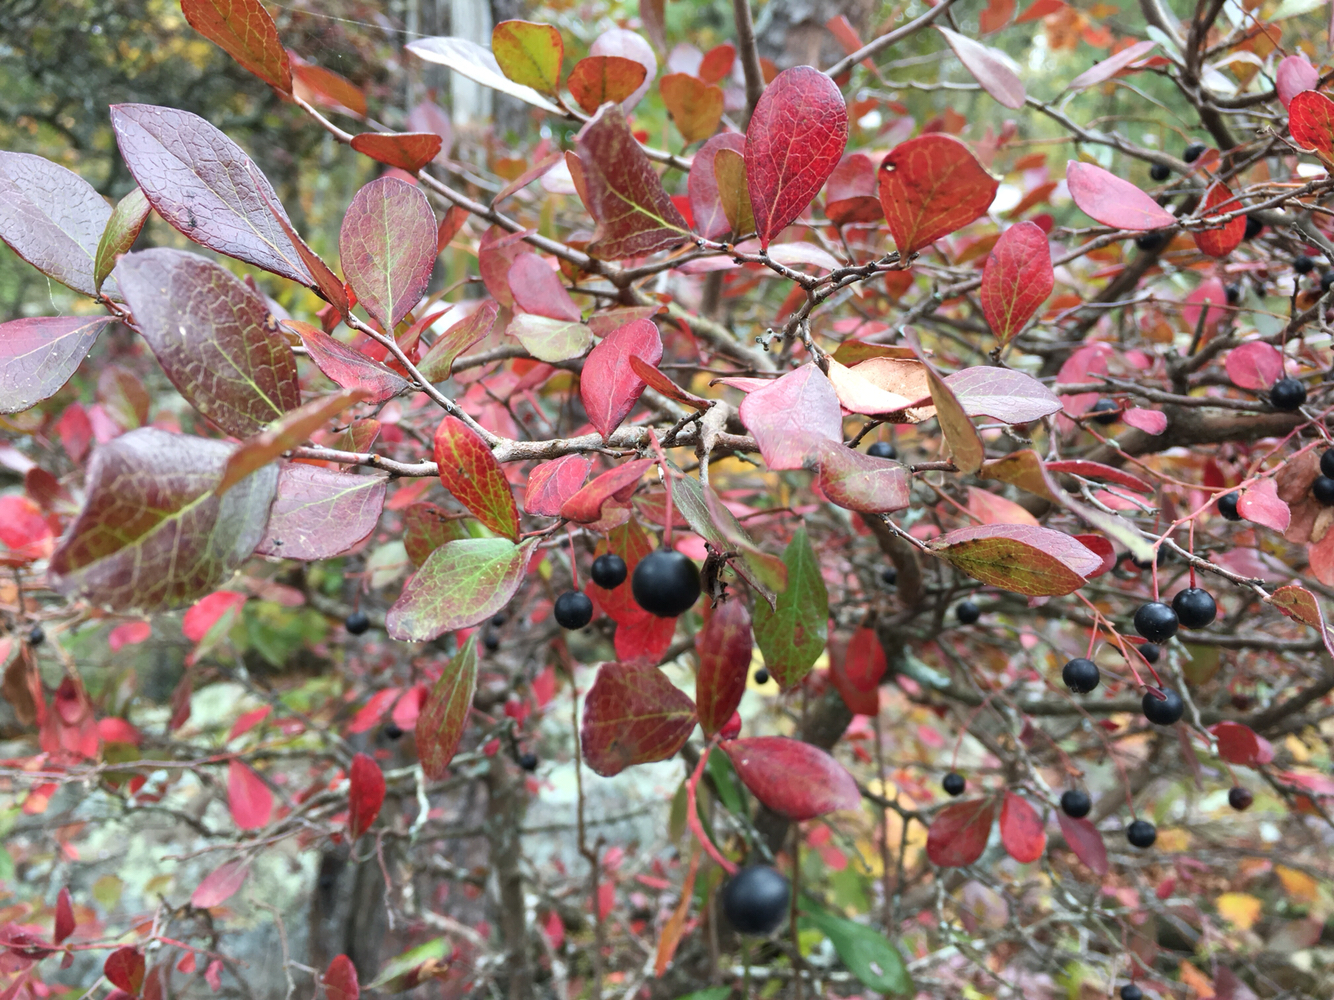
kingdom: Plantae
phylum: Tracheophyta
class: Magnoliopsida
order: Ericales
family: Ericaceae
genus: Vaccinium
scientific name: Vaccinium arboreum
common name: Farkleberry
